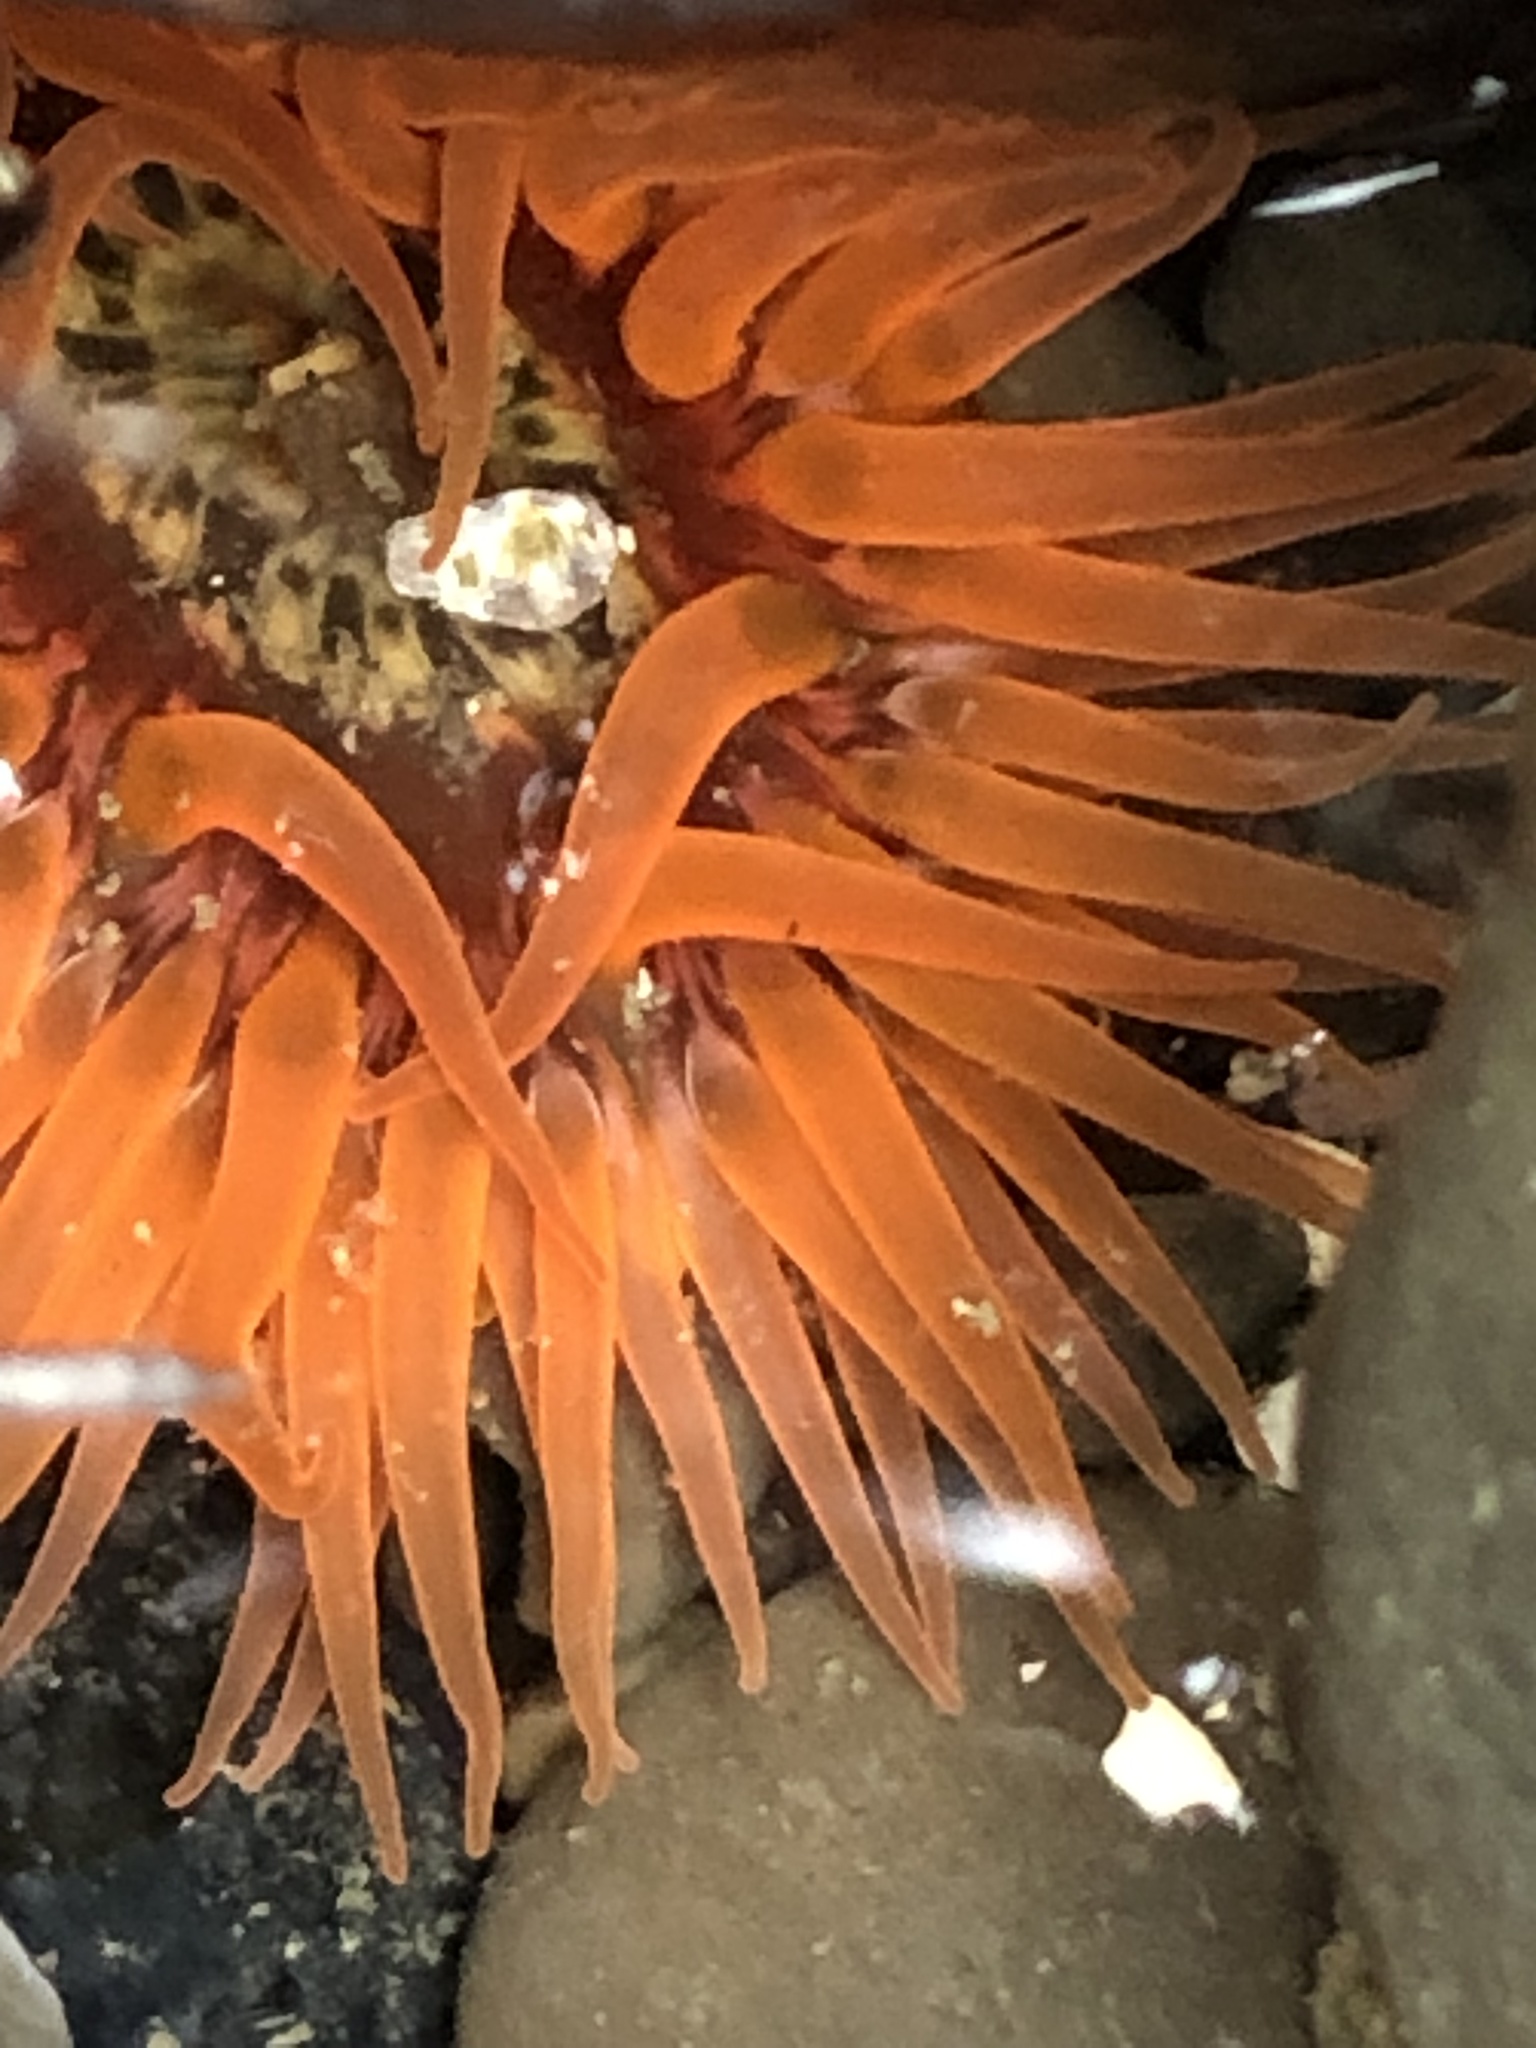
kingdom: Animalia
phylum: Cnidaria
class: Anthozoa
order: Actiniaria
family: Actiniidae
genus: Anthopleura
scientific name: Anthopleura artemisia
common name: Buried sea anemone
